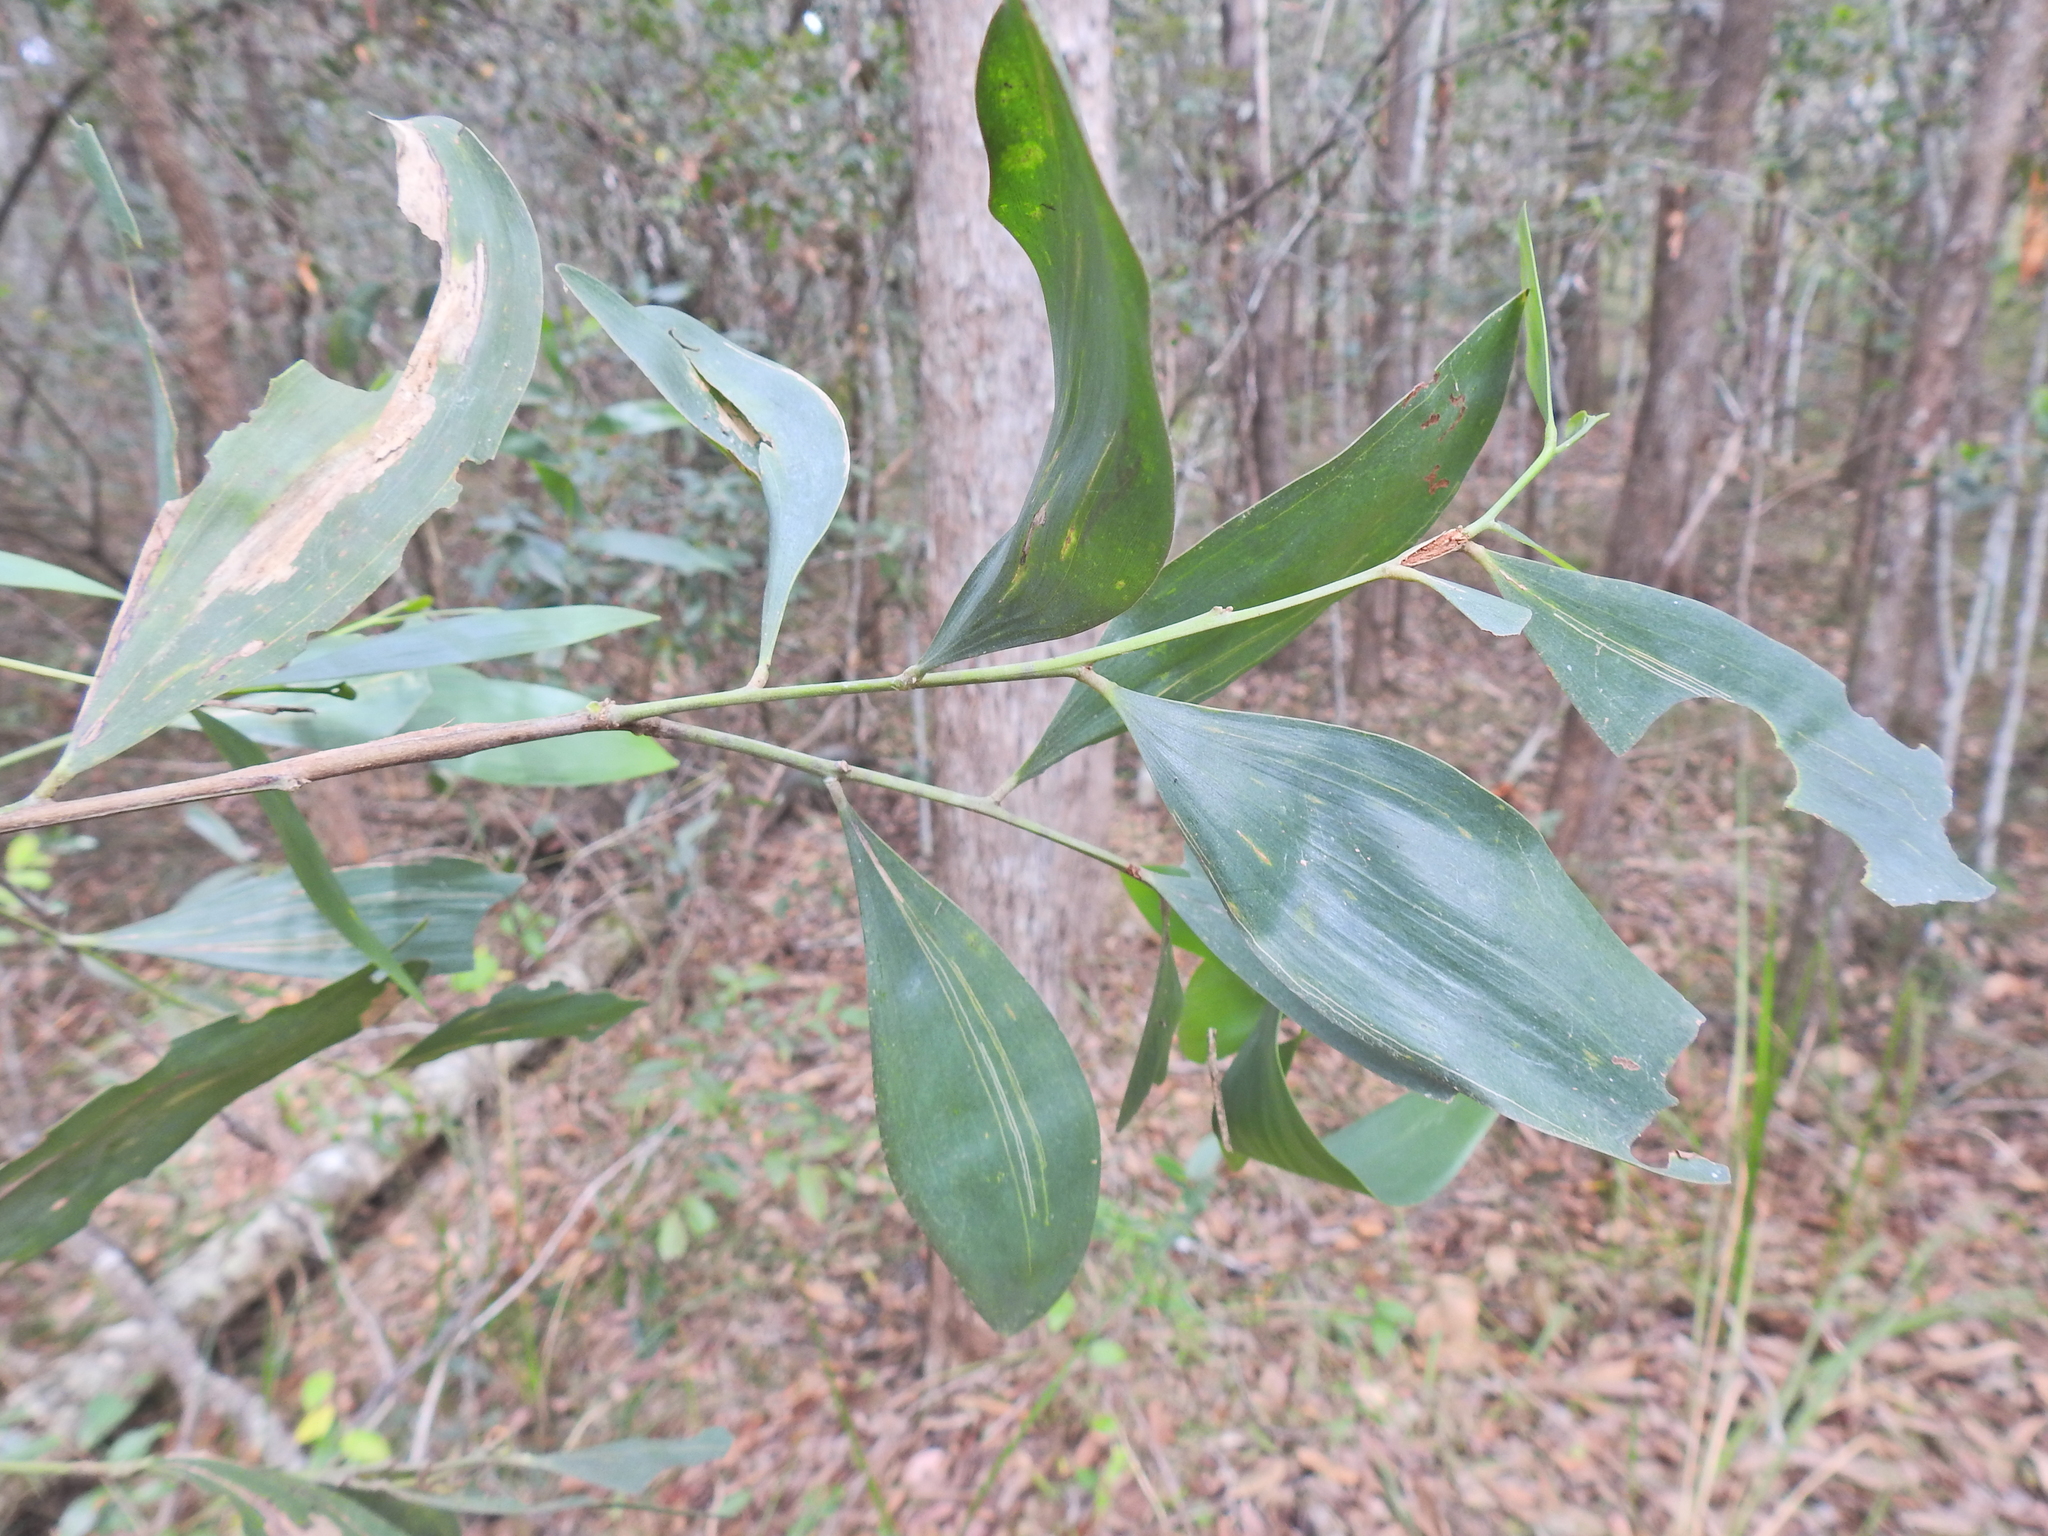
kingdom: Plantae
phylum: Tracheophyta
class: Magnoliopsida
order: Fabales
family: Fabaceae
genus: Acacia
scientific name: Acacia disparrima
